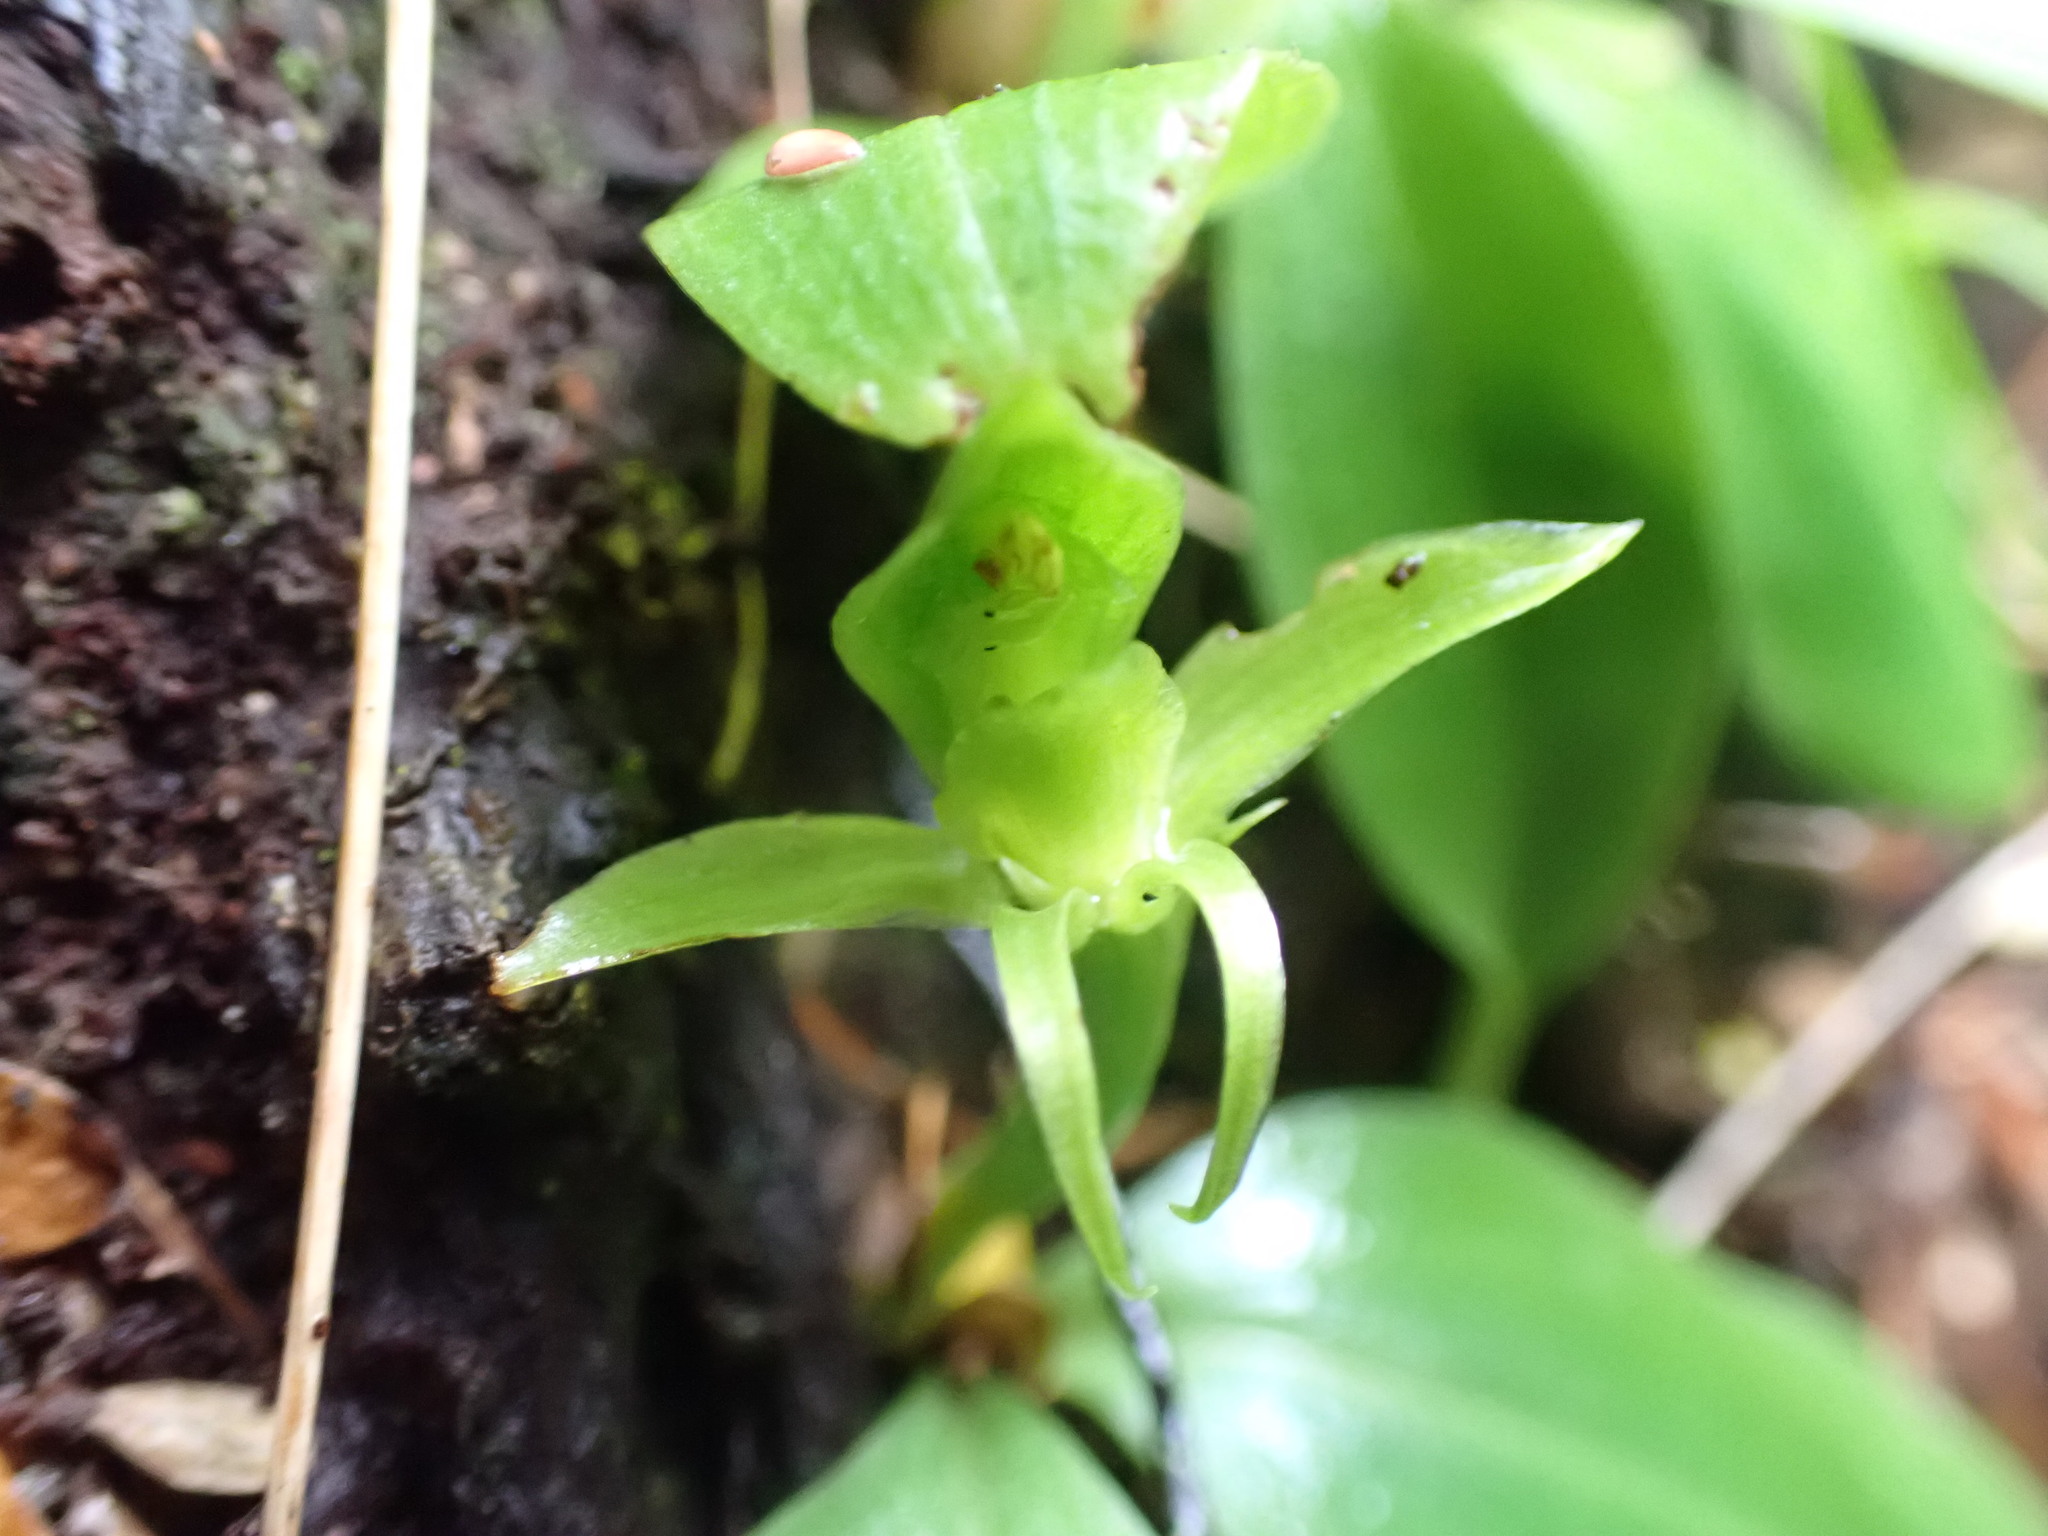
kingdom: Plantae
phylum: Tracheophyta
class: Liliopsida
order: Asparagales
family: Orchidaceae
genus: Chiloglottis
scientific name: Chiloglottis cornuta
